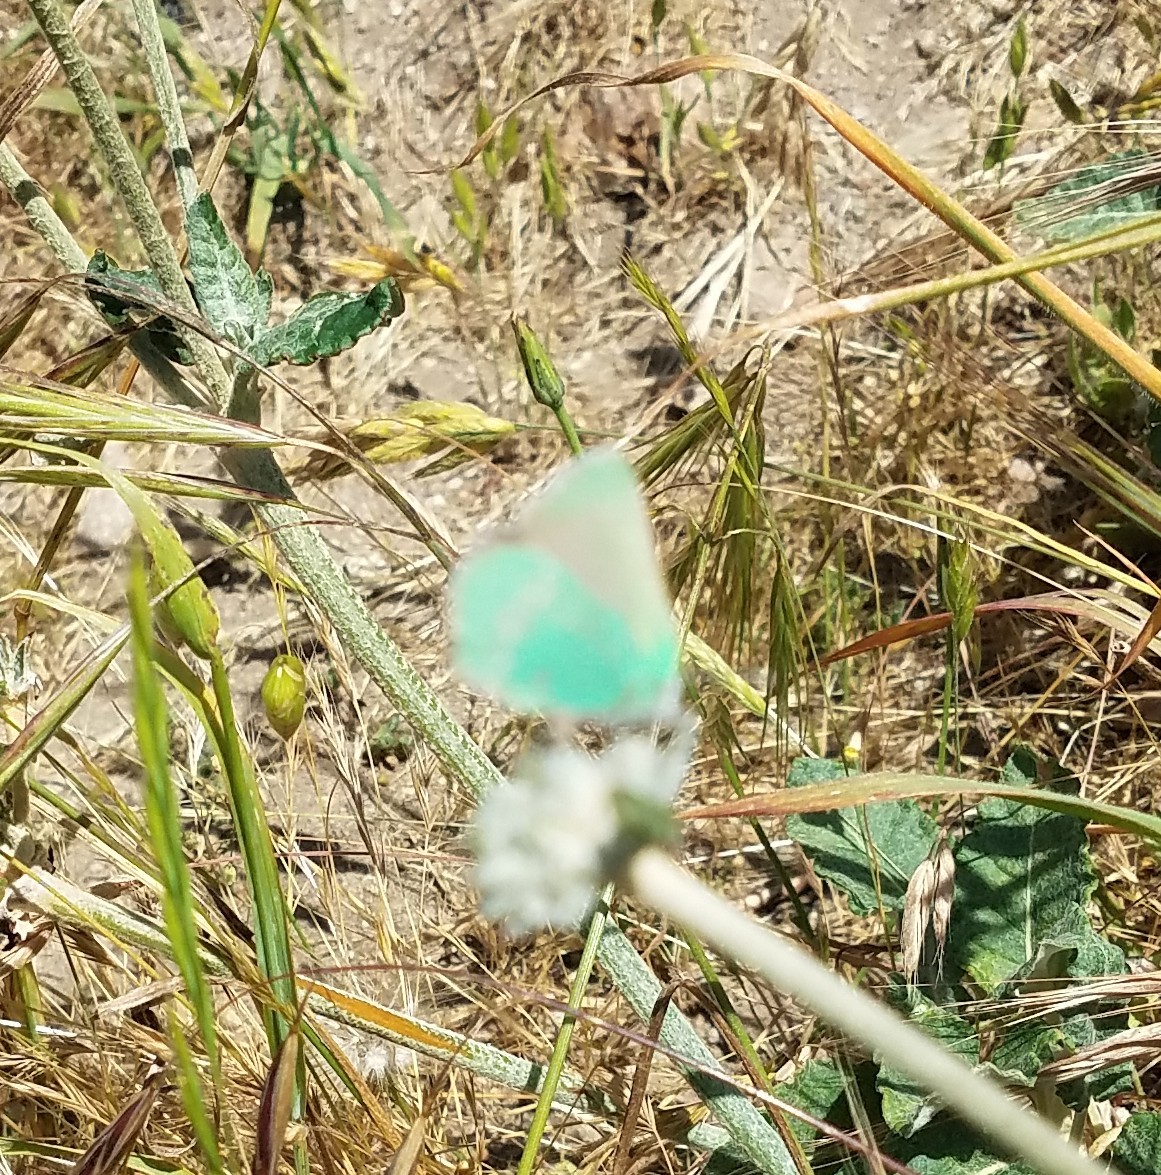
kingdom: Animalia
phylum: Arthropoda
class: Insecta
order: Lepidoptera
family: Lycaenidae
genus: Callophrys
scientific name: Callophrys viridis
